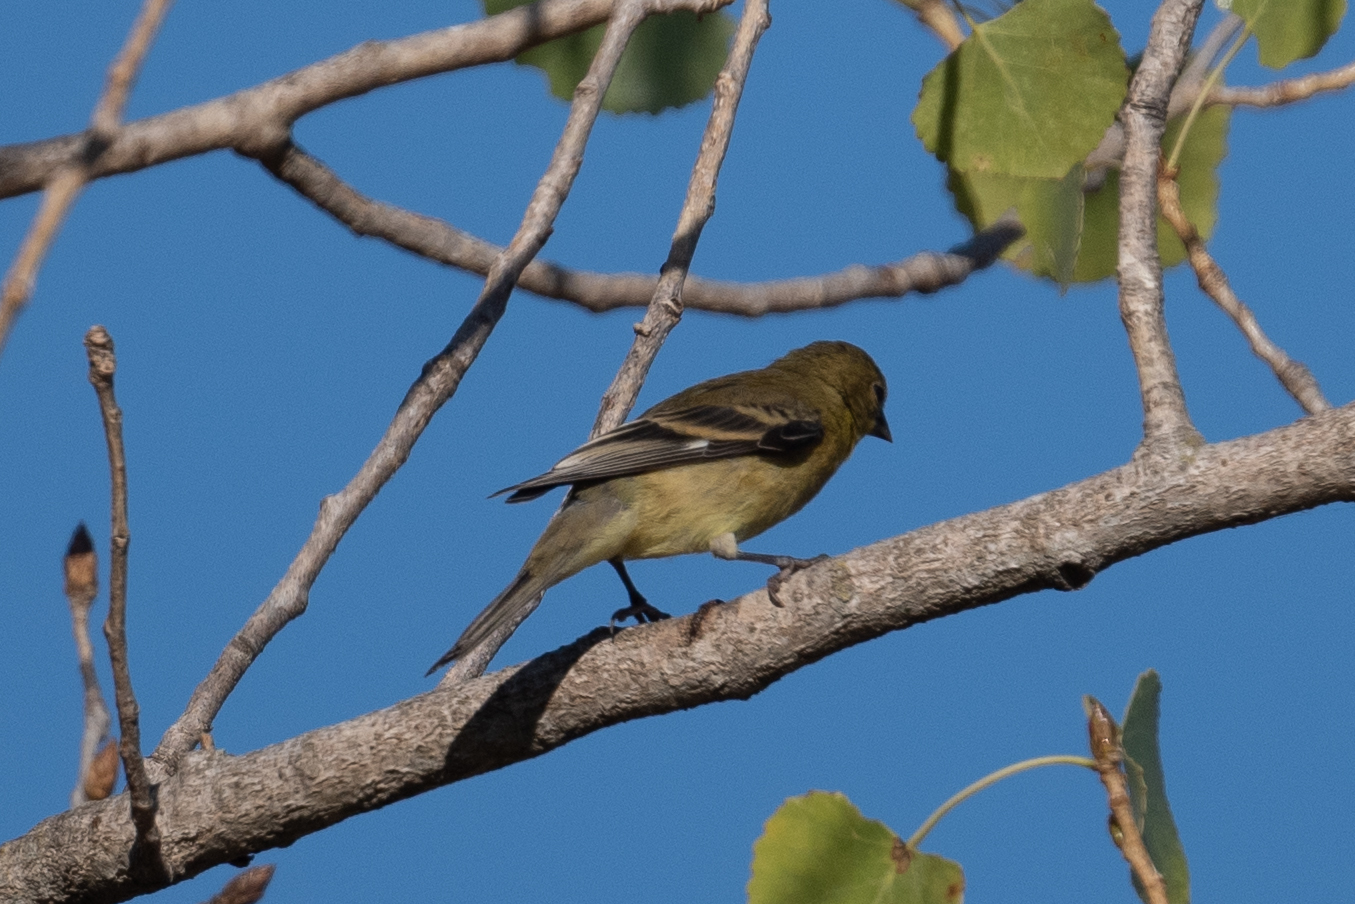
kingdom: Animalia
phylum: Chordata
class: Aves
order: Passeriformes
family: Fringillidae
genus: Spinus
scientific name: Spinus psaltria
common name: Lesser goldfinch
